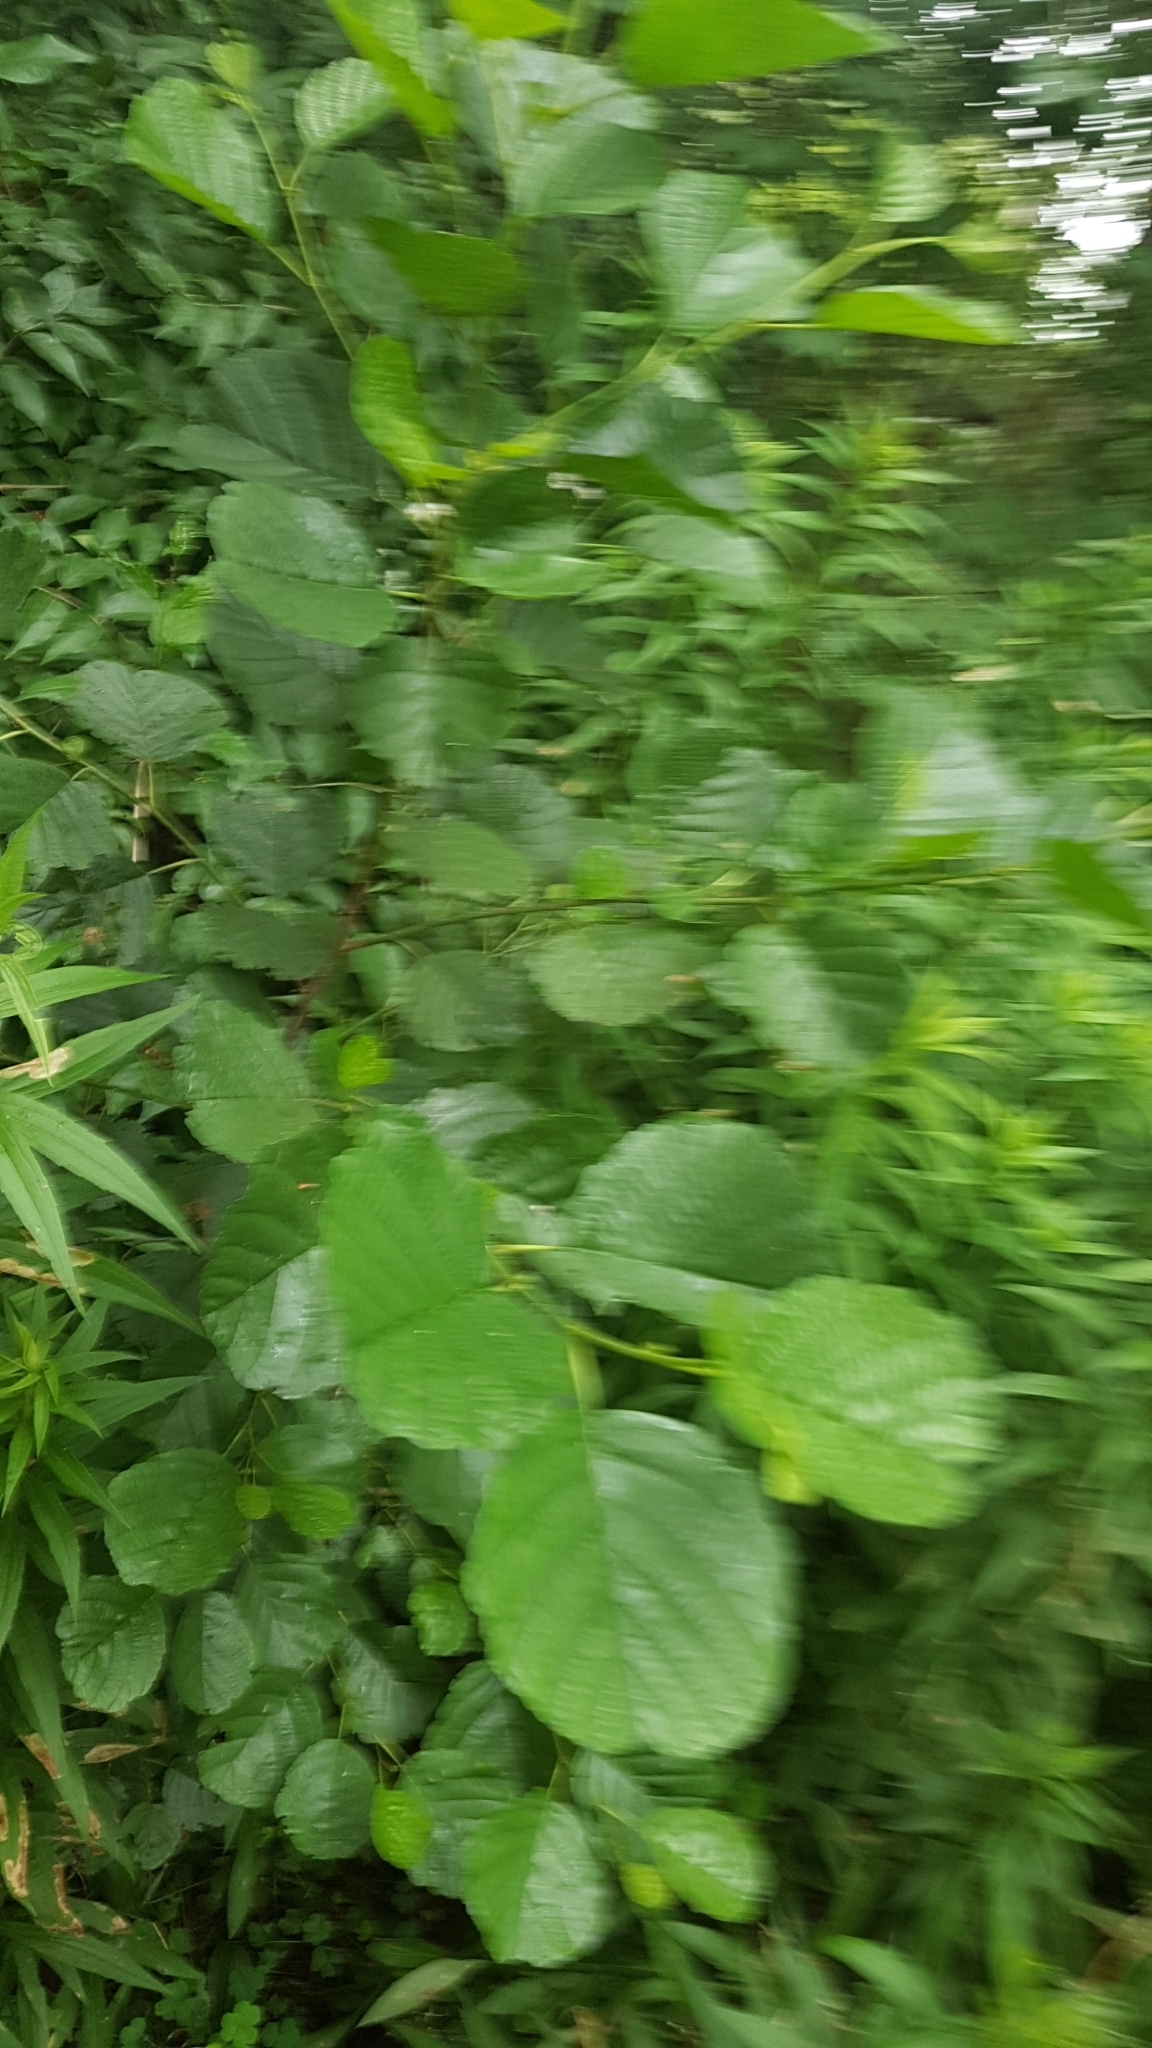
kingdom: Plantae
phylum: Tracheophyta
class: Magnoliopsida
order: Fagales
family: Betulaceae
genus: Alnus
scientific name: Alnus glutinosa
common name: Black alder
